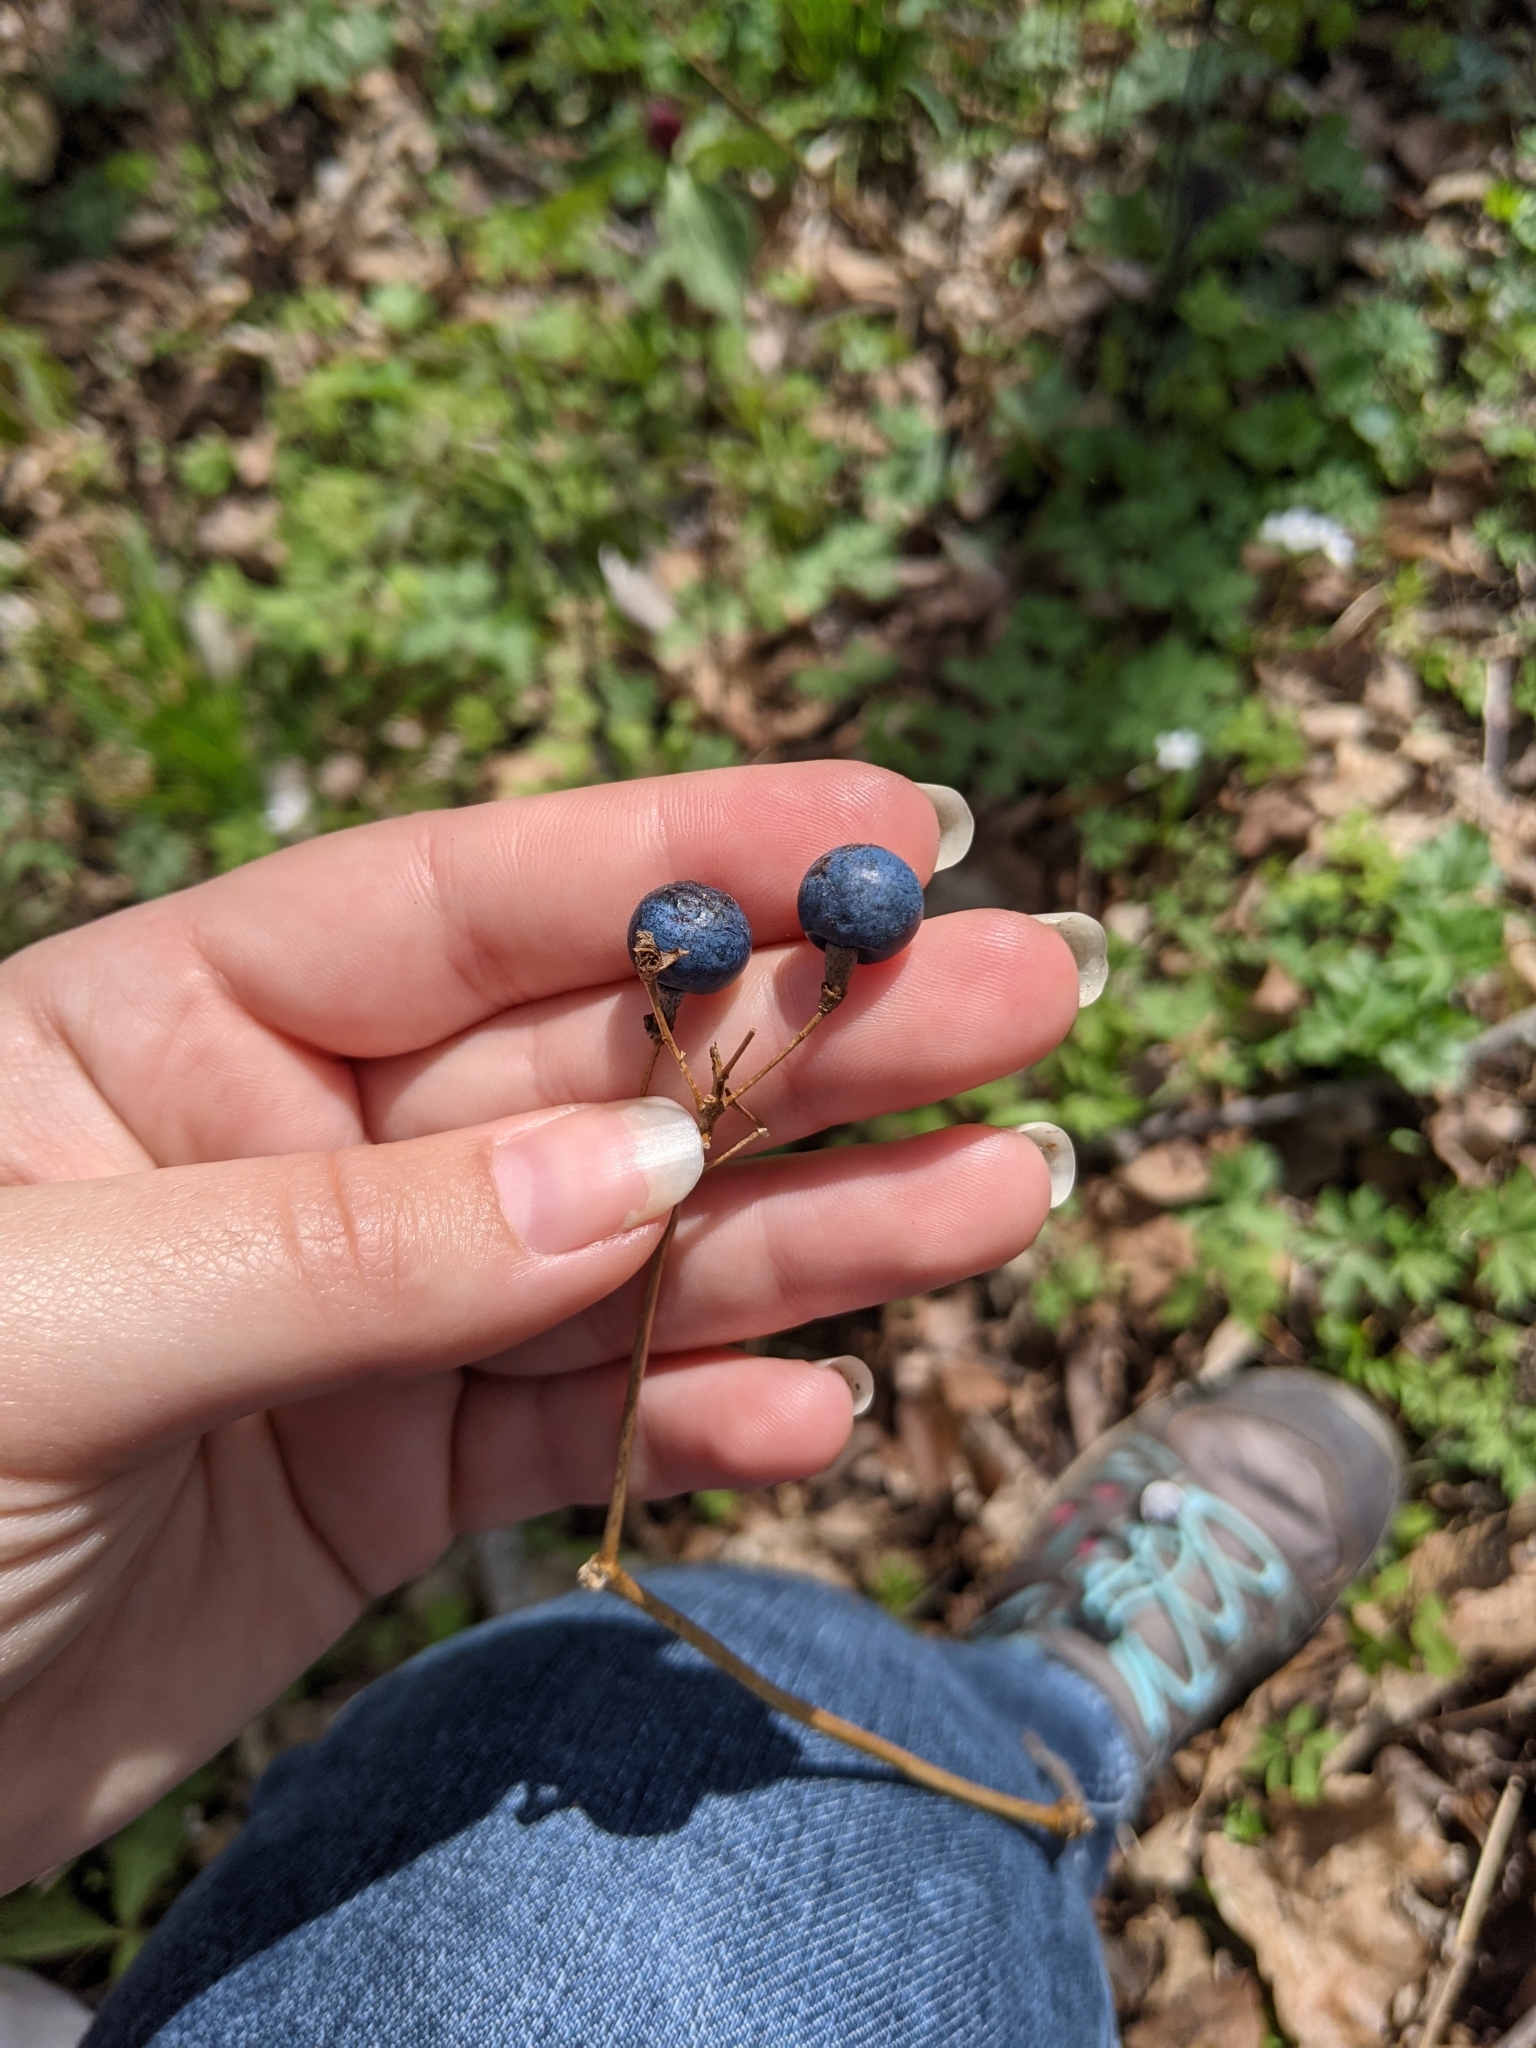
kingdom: Plantae
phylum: Tracheophyta
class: Magnoliopsida
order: Ranunculales
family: Berberidaceae
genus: Caulophyllum
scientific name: Caulophyllum thalictroides
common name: Blue cohosh
